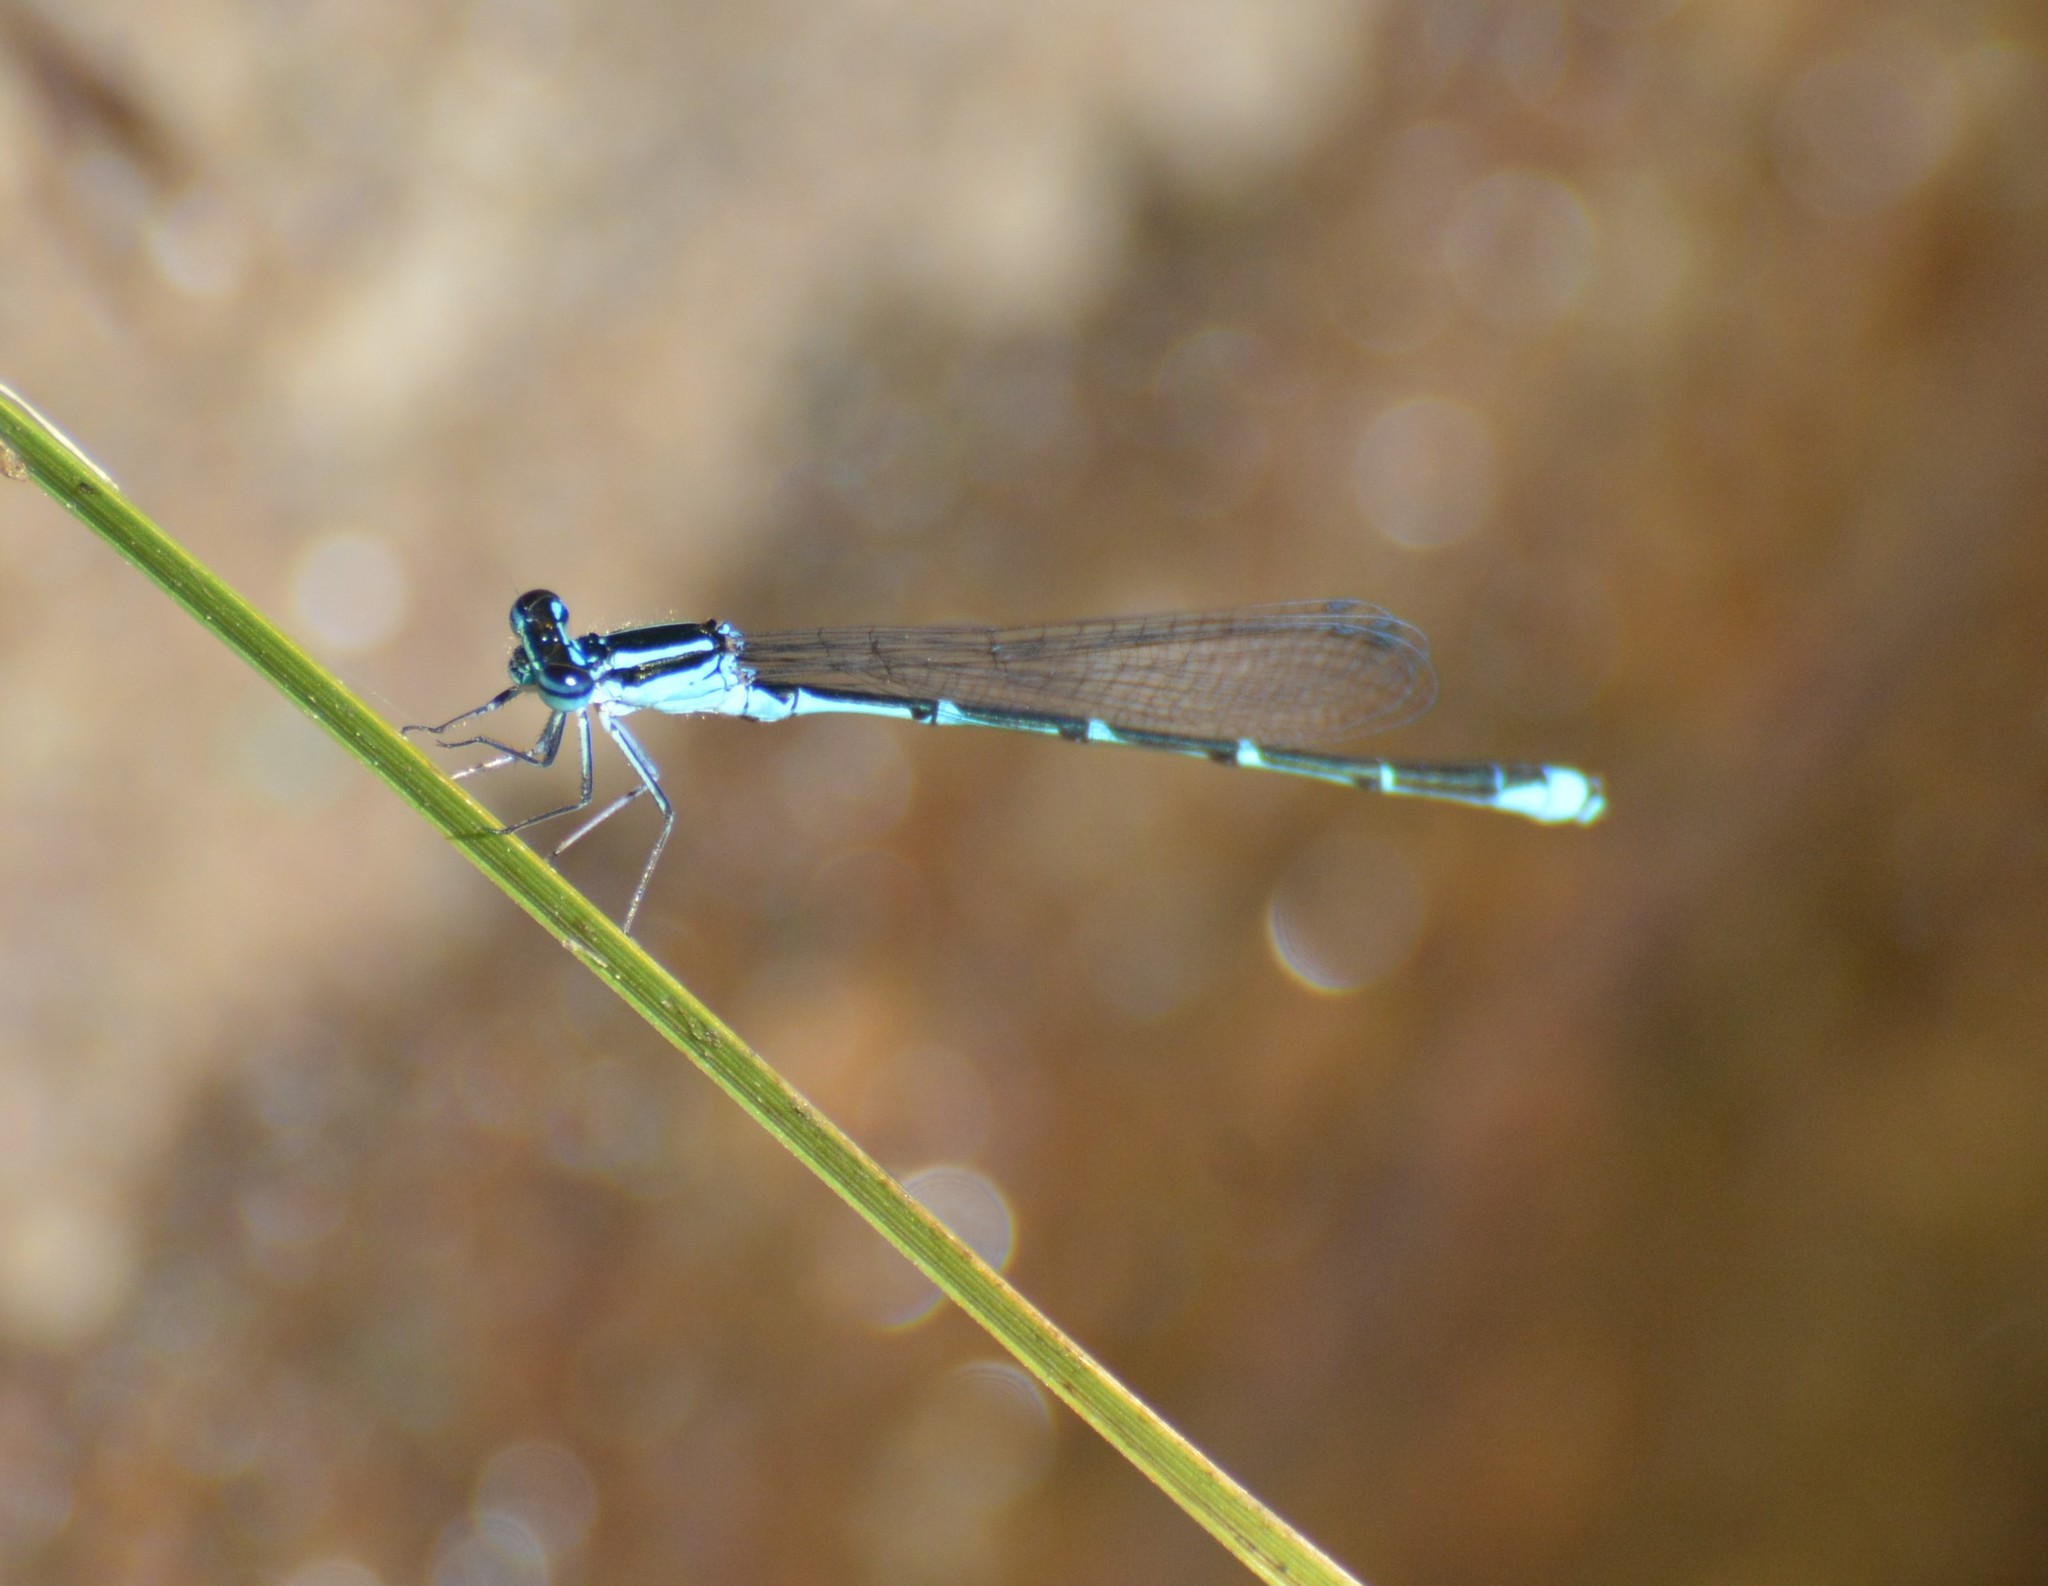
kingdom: Animalia
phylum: Arthropoda
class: Insecta
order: Odonata
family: Coenagrionidae
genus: Enallagma
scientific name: Enallagma exsulans
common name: Stream bluet
